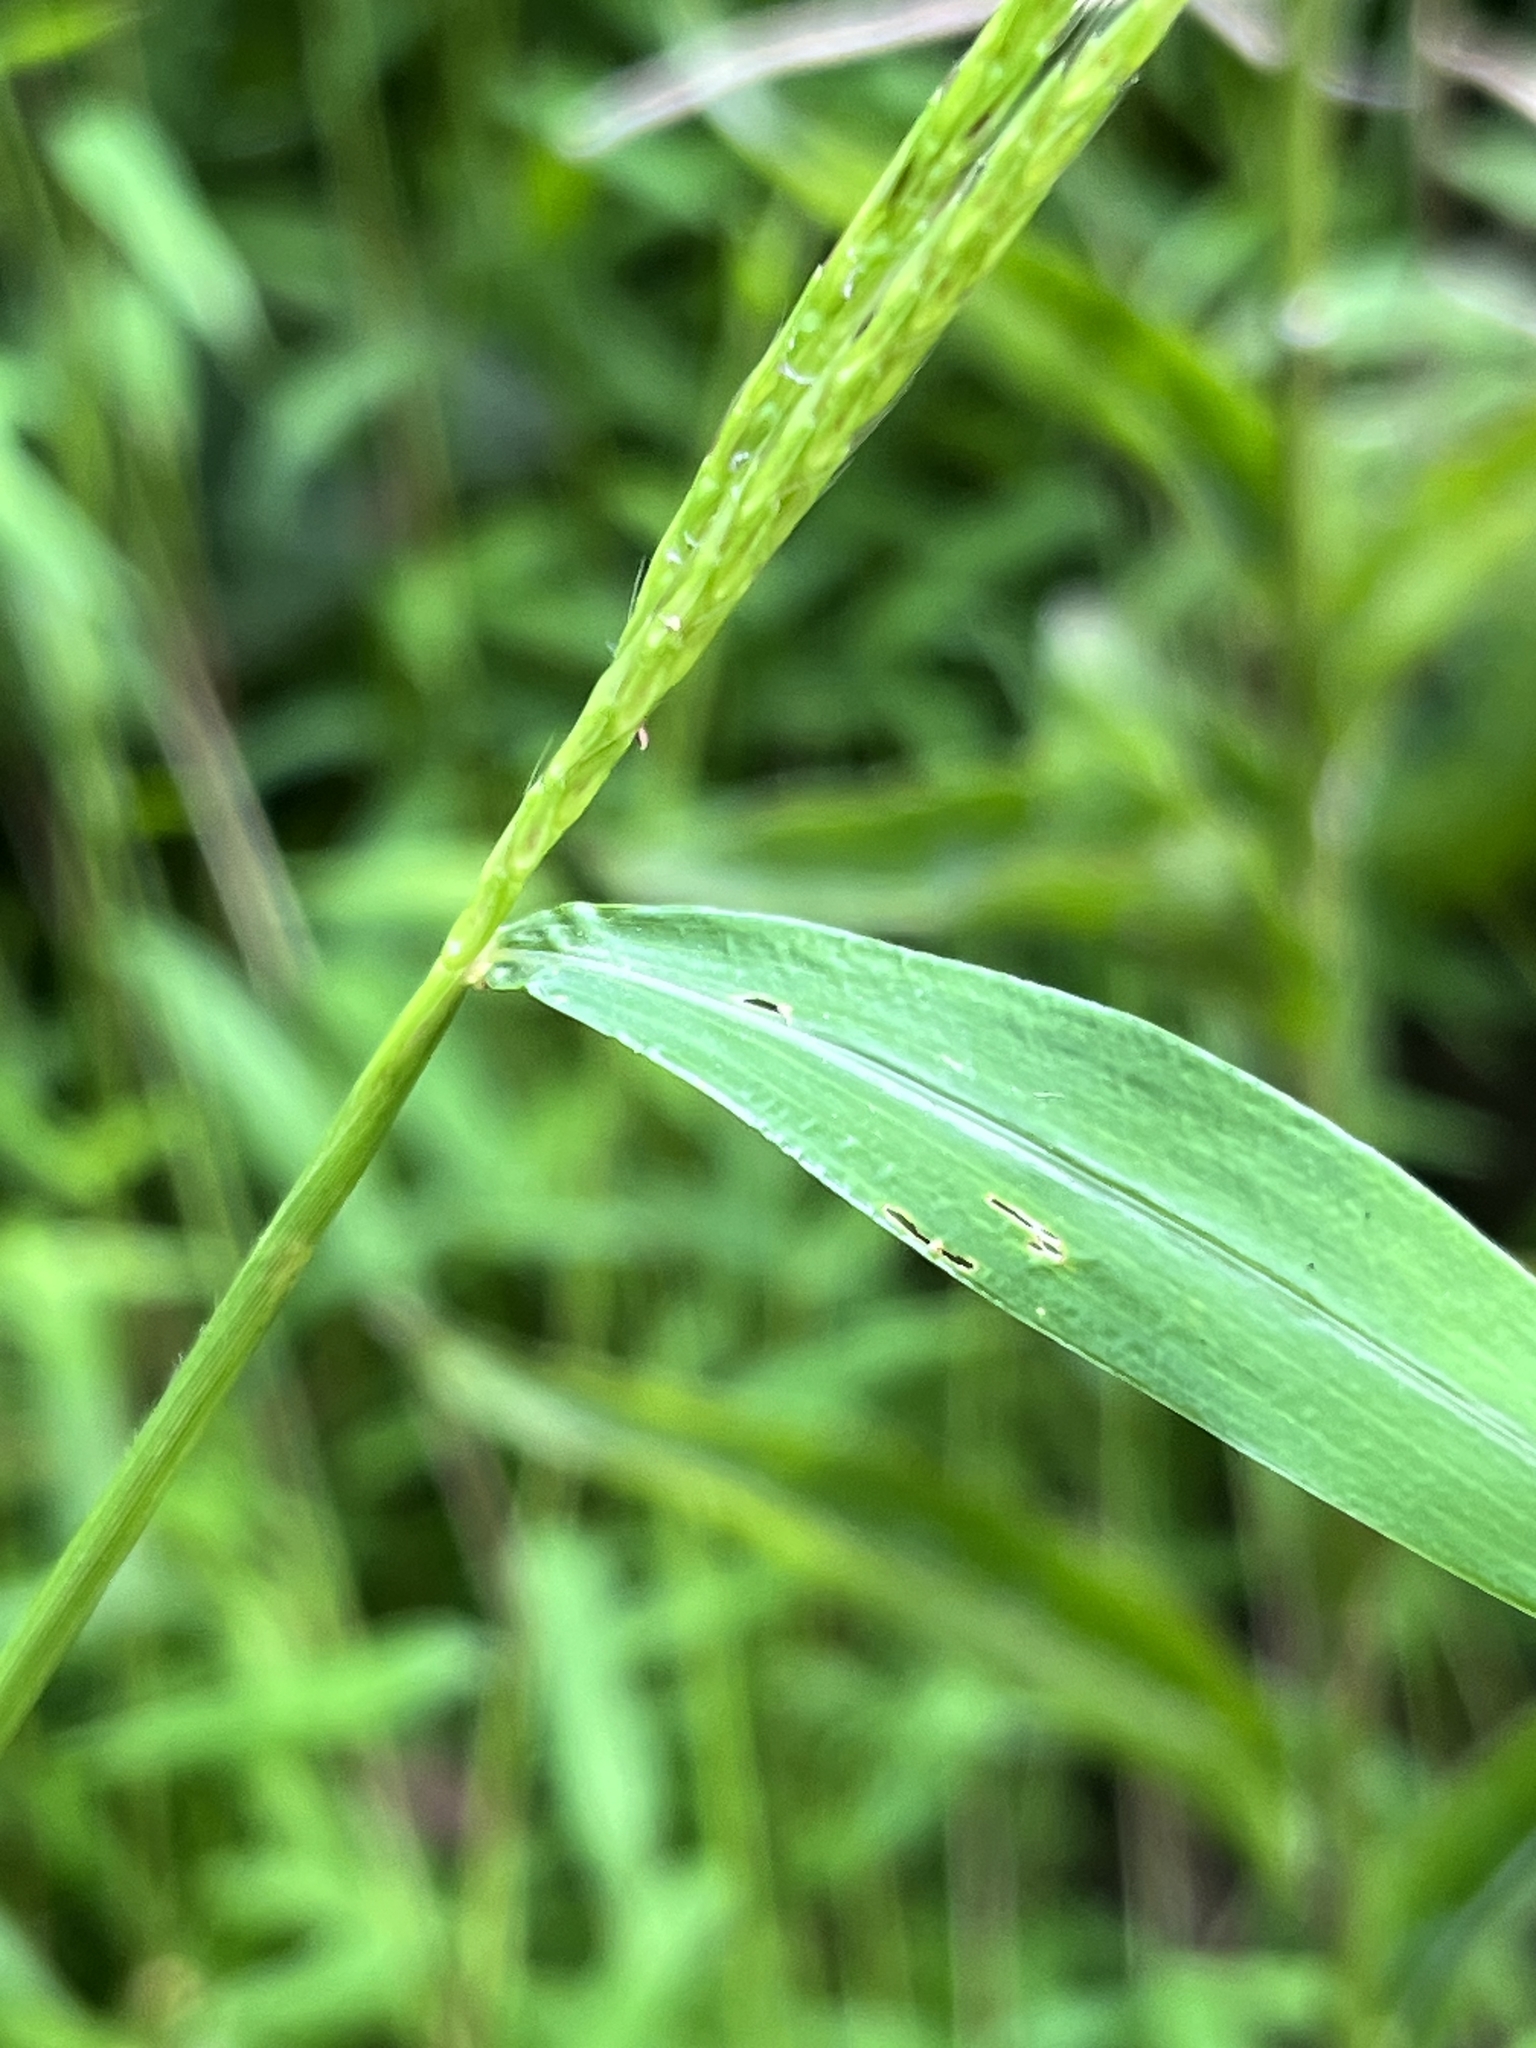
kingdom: Plantae
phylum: Tracheophyta
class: Liliopsida
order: Poales
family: Poaceae
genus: Microstegium
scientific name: Microstegium vimineum
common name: Japanese stiltgrass
